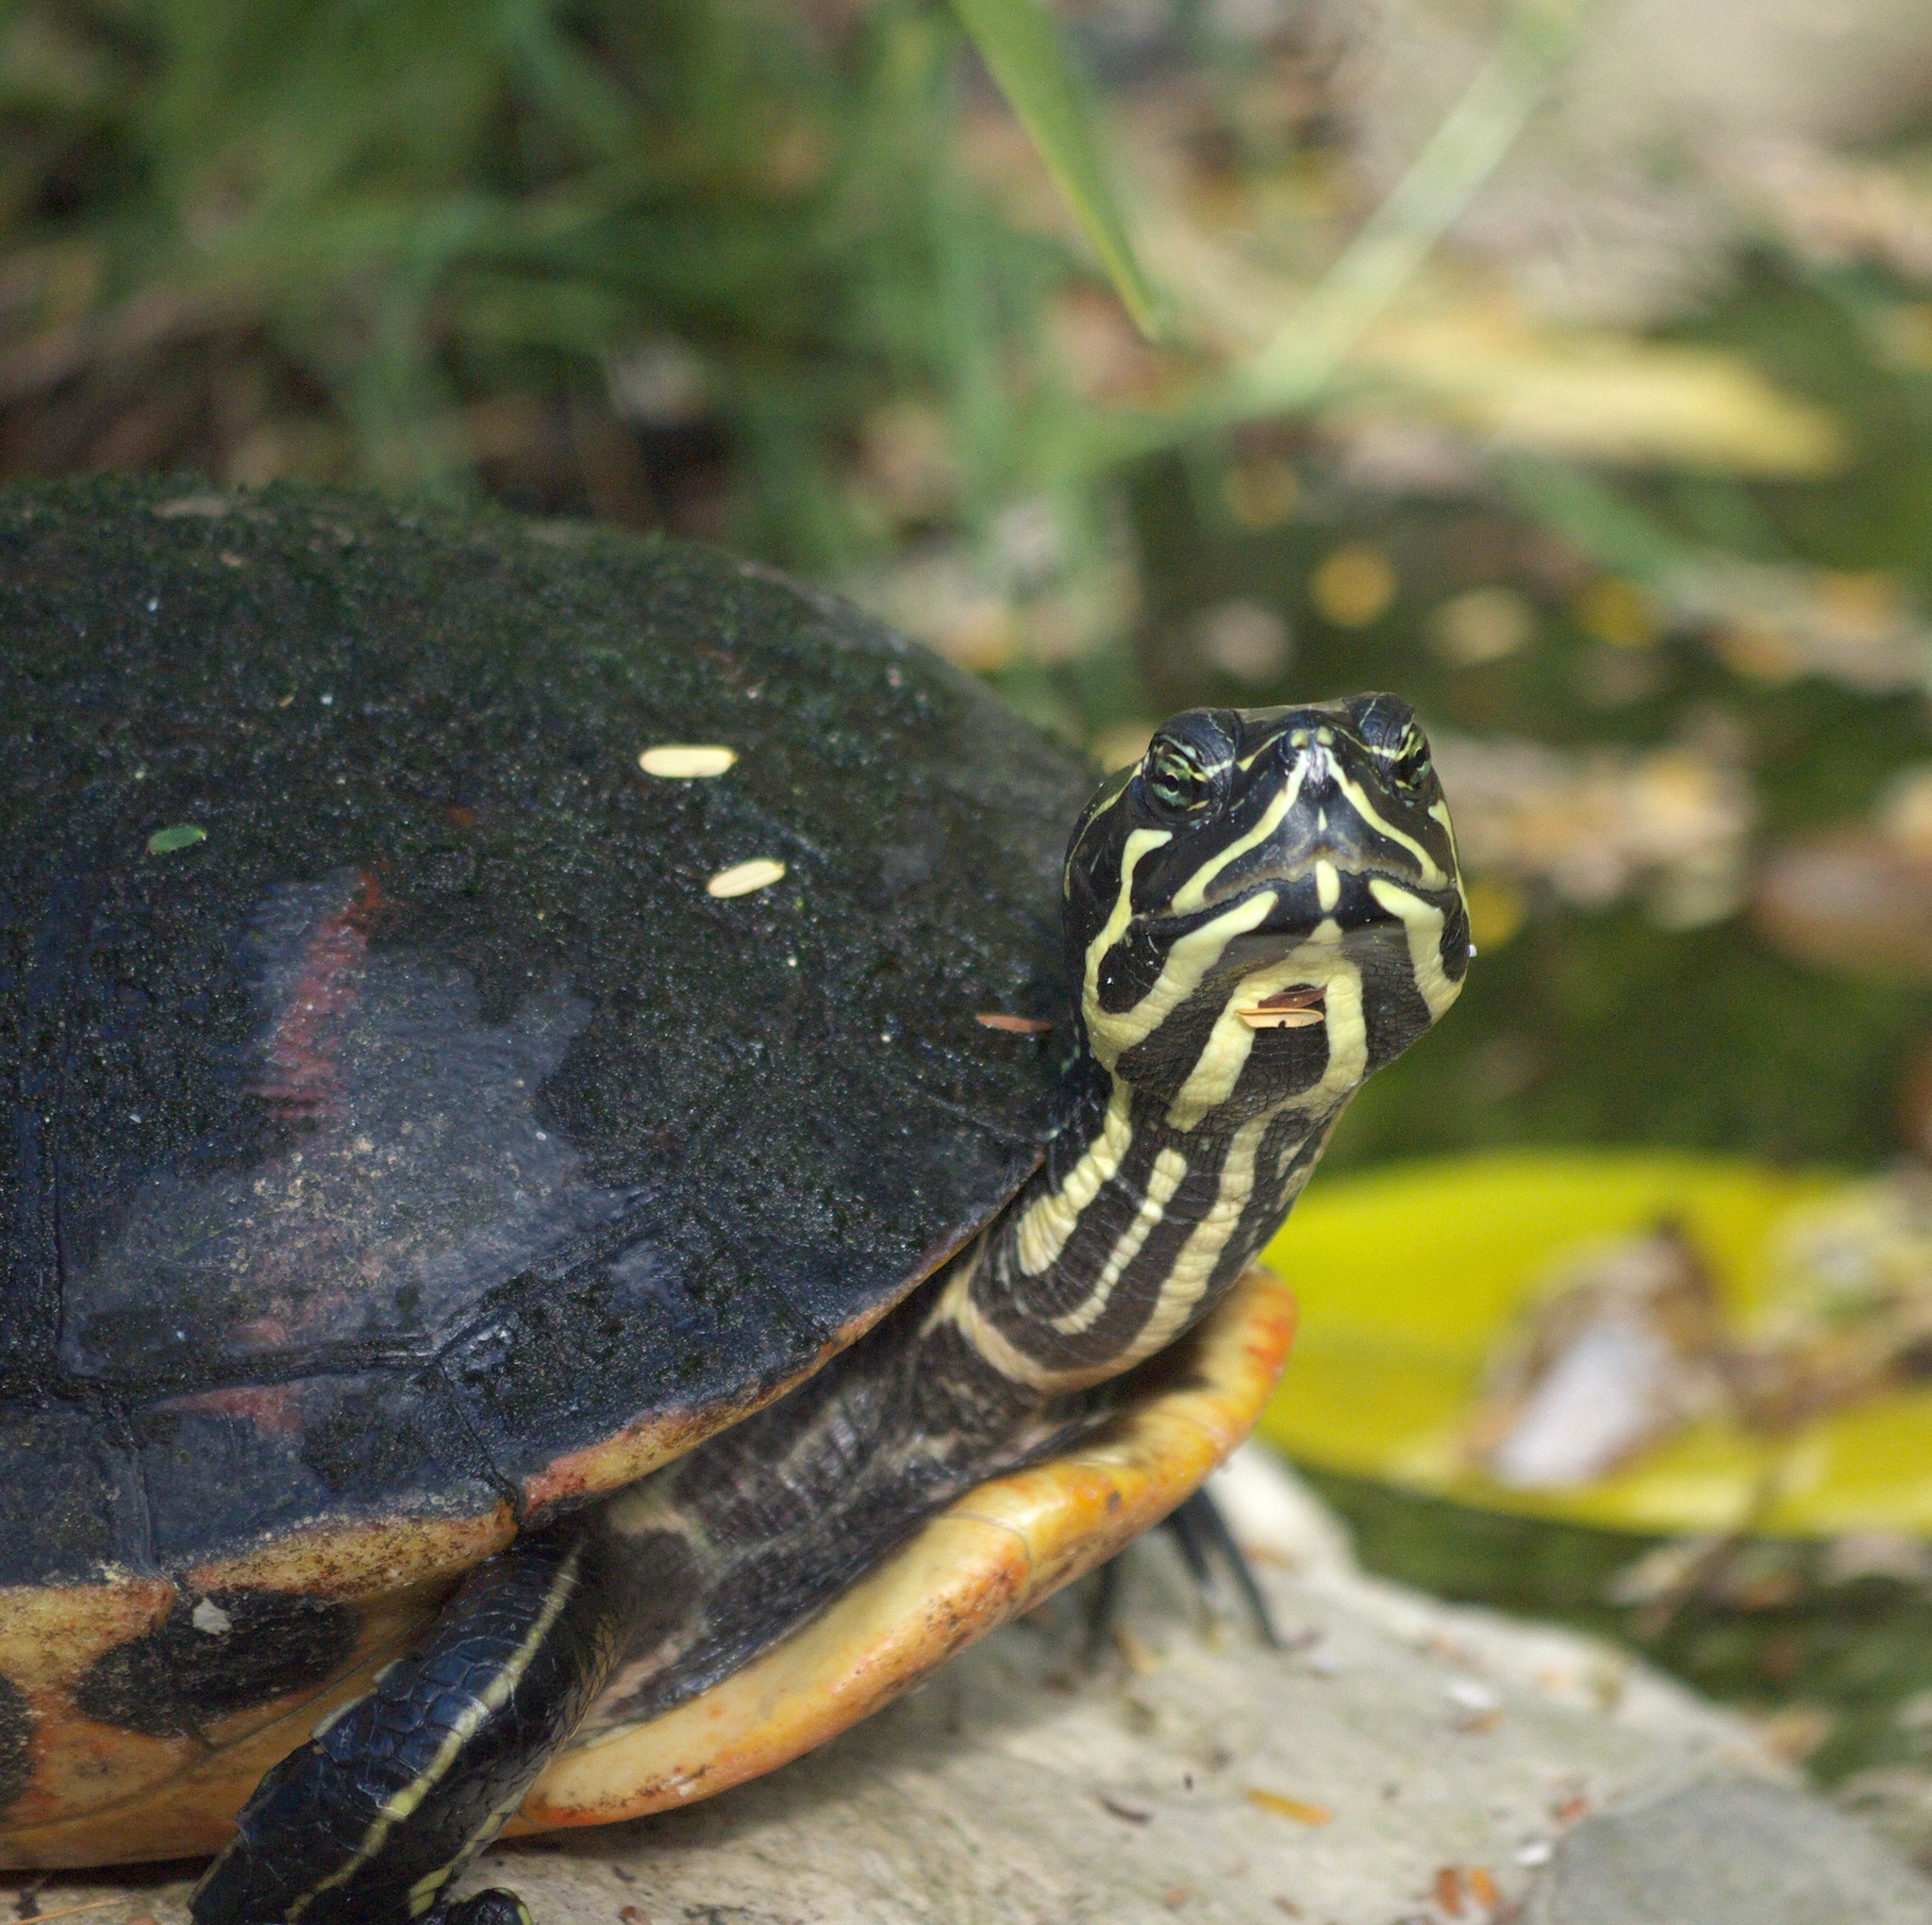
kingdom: Animalia
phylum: Chordata
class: Testudines
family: Emydidae
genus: Pseudemys
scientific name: Pseudemys nelsoni
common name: Florida red-bellied turtle
